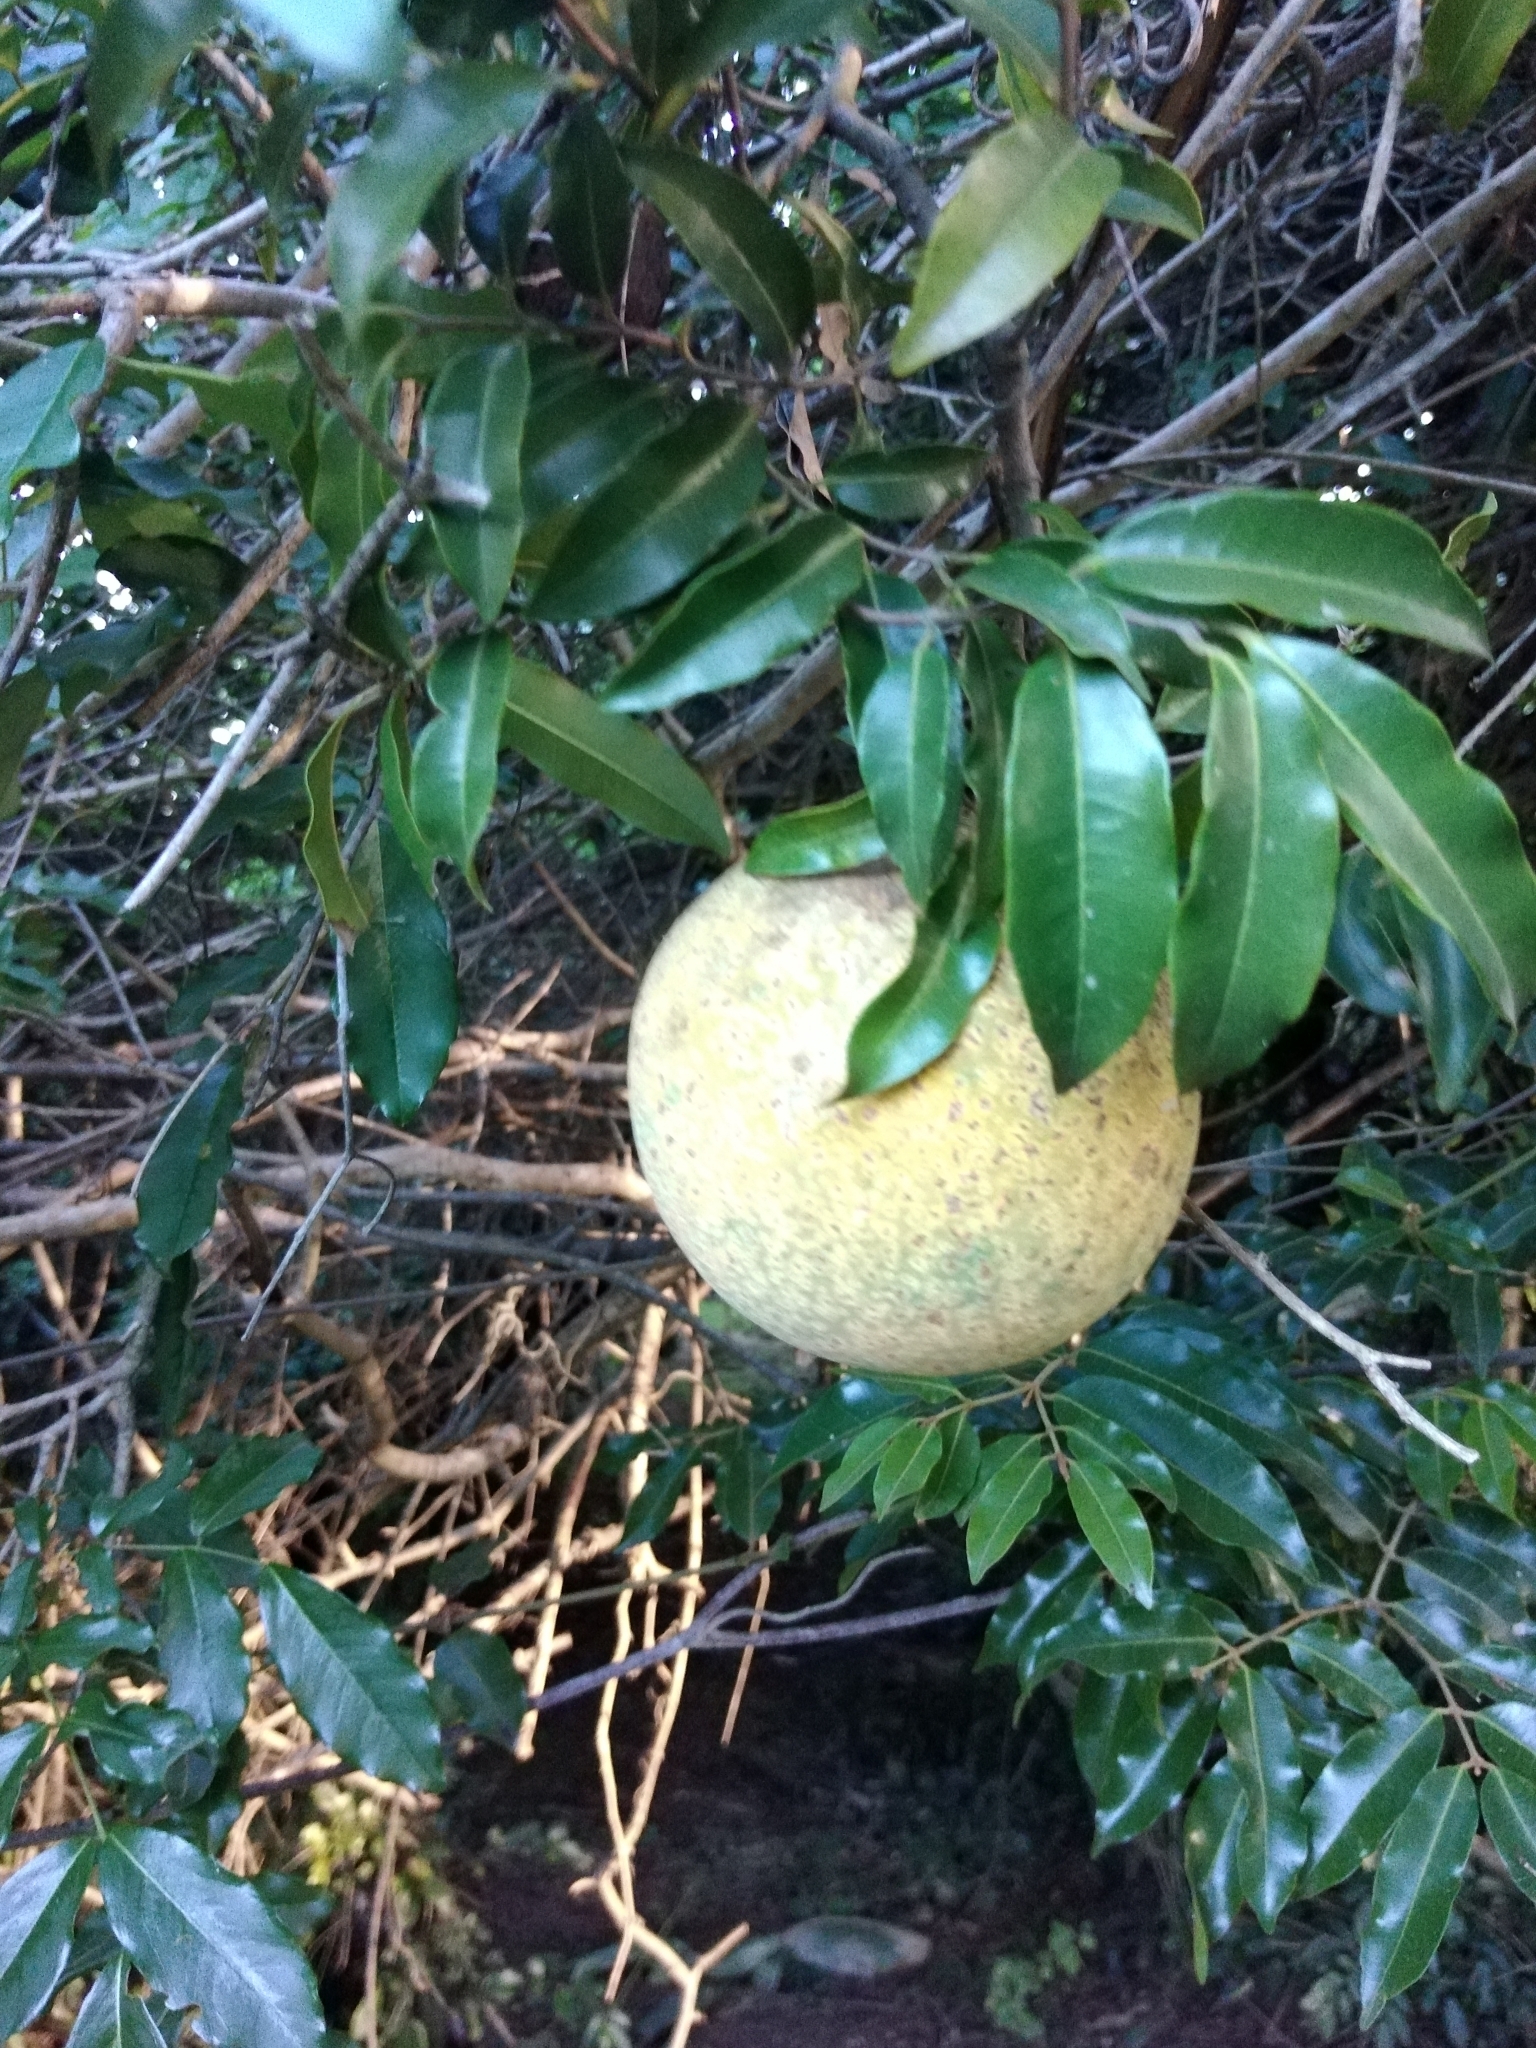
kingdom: Plantae
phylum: Tracheophyta
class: Magnoliopsida
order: Gentianales
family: Apocynaceae
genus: Landolphia
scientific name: Landolphia kirkii
